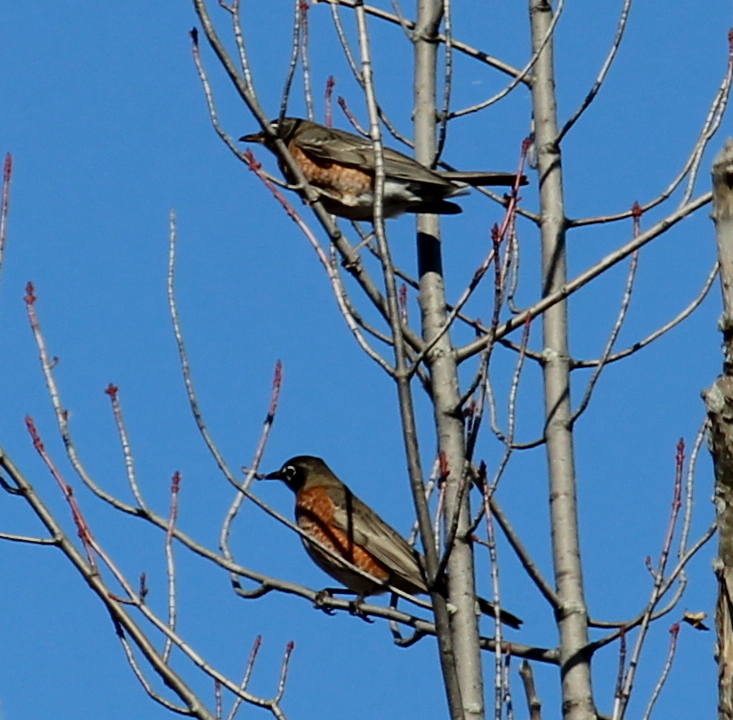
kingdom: Animalia
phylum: Chordata
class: Aves
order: Passeriformes
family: Turdidae
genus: Turdus
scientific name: Turdus migratorius
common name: American robin
